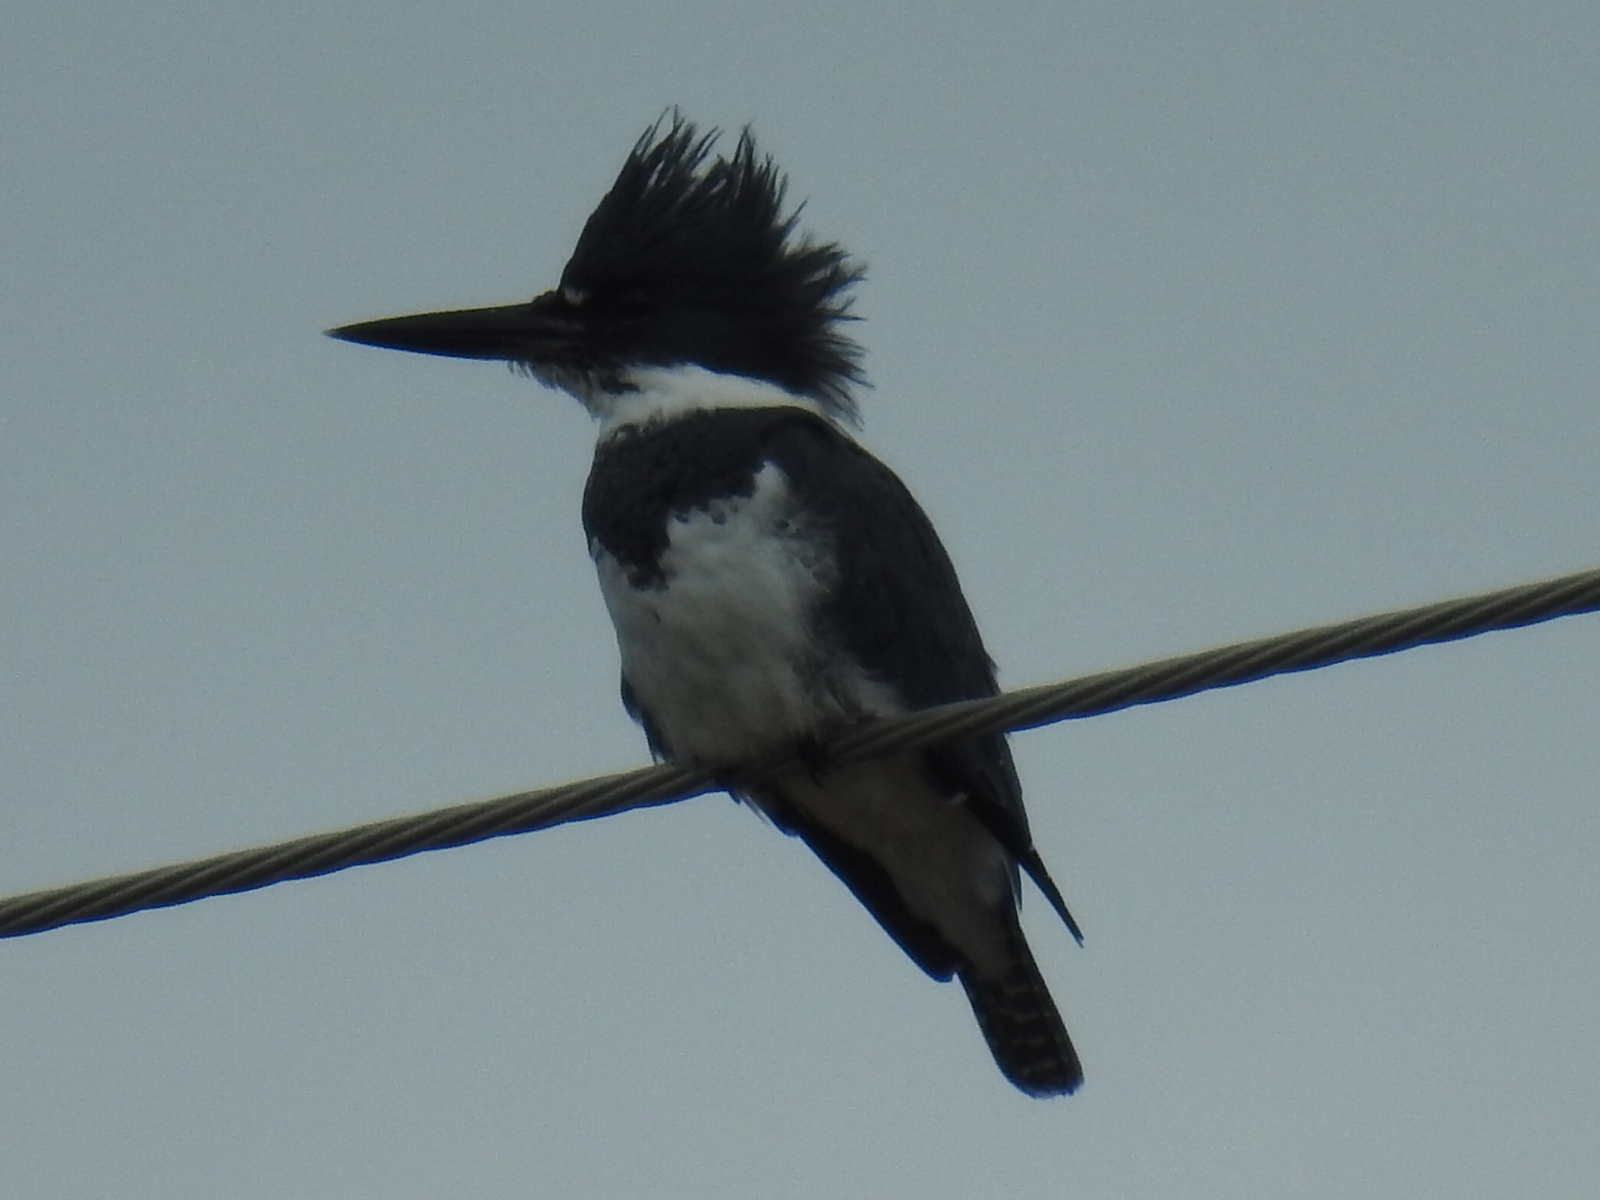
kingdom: Animalia
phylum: Chordata
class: Aves
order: Coraciiformes
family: Alcedinidae
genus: Megaceryle
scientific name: Megaceryle alcyon
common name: Belted kingfisher
